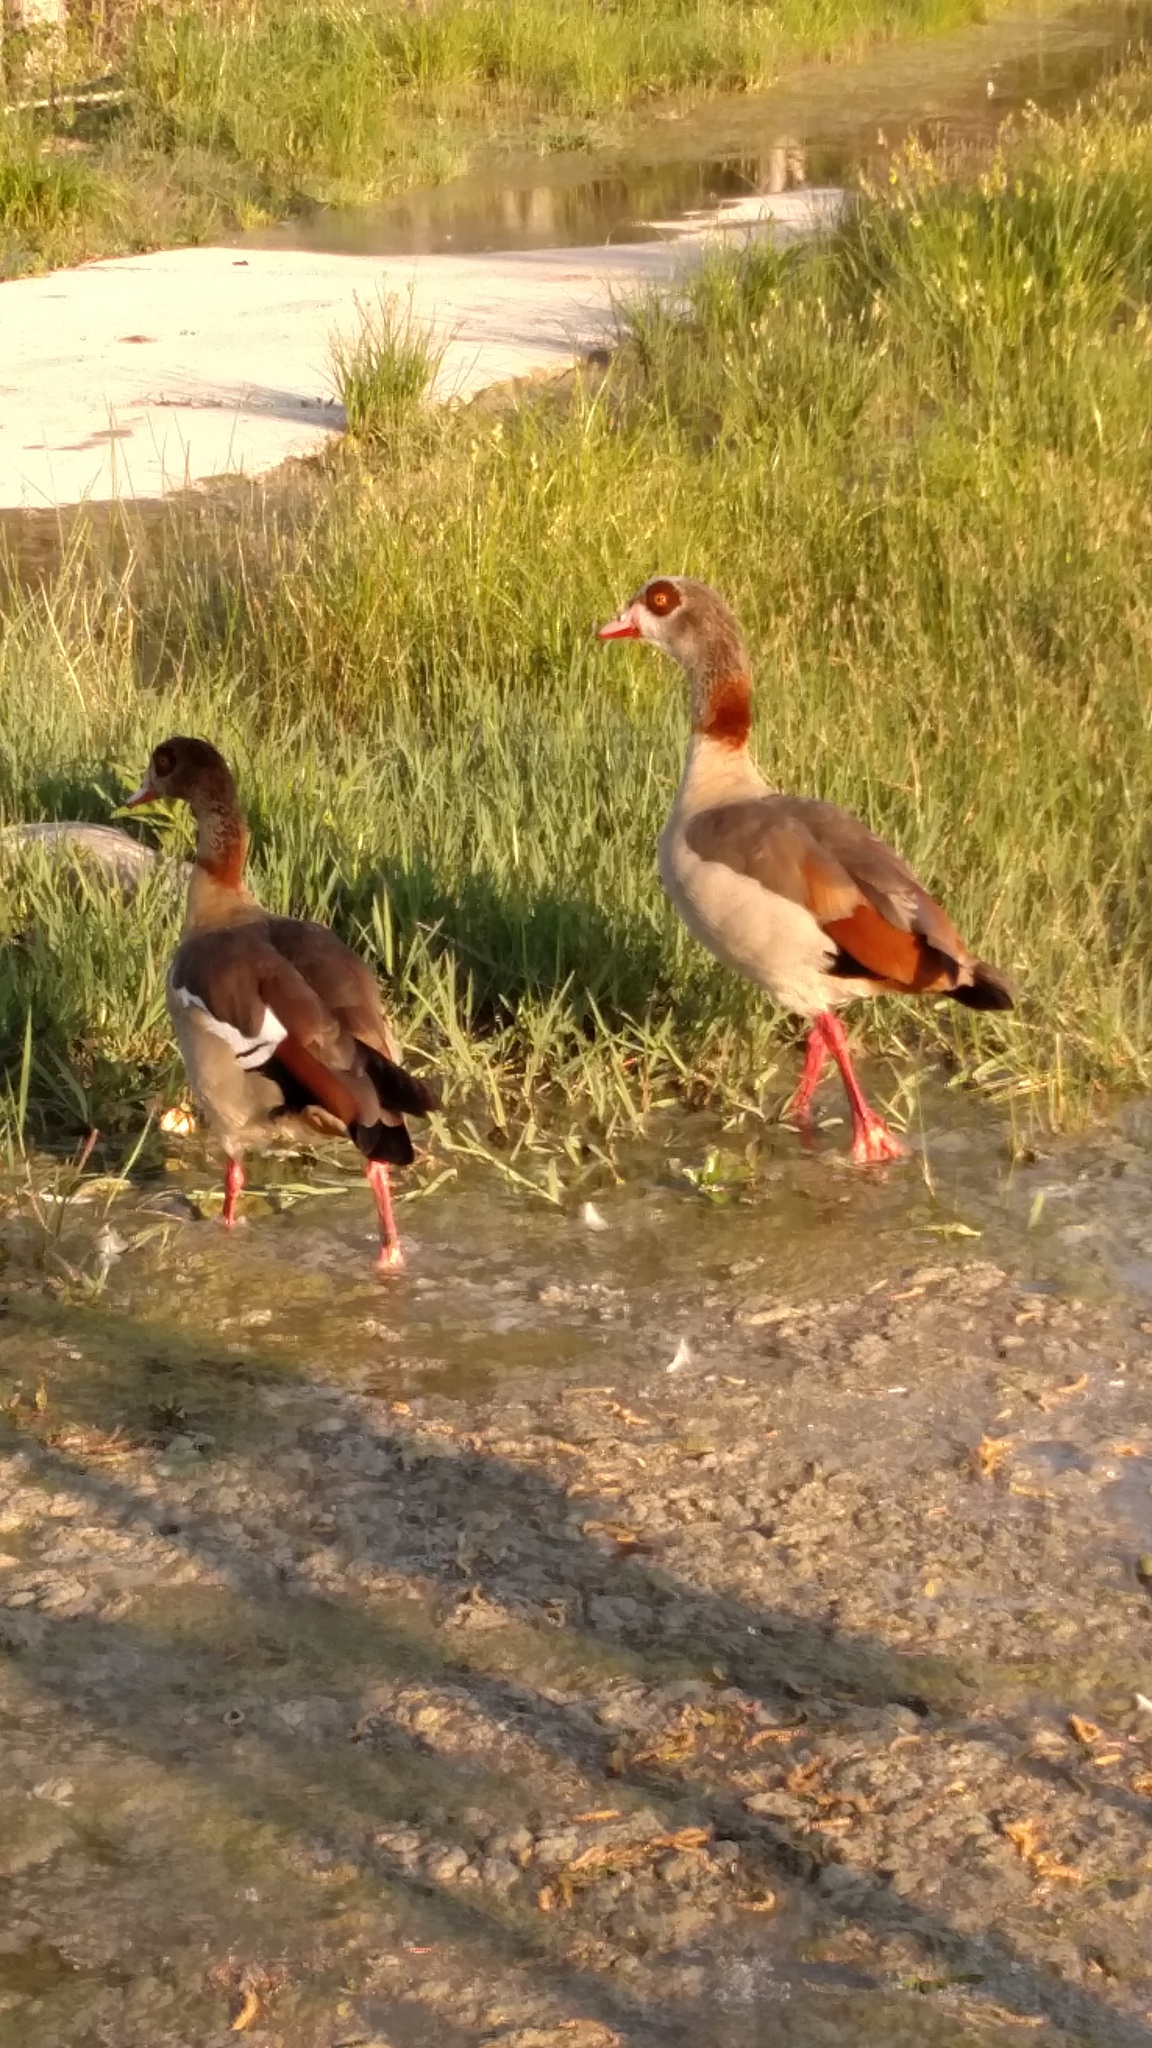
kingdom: Animalia
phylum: Chordata
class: Aves
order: Anseriformes
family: Anatidae
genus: Alopochen
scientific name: Alopochen aegyptiaca
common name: Egyptian goose
